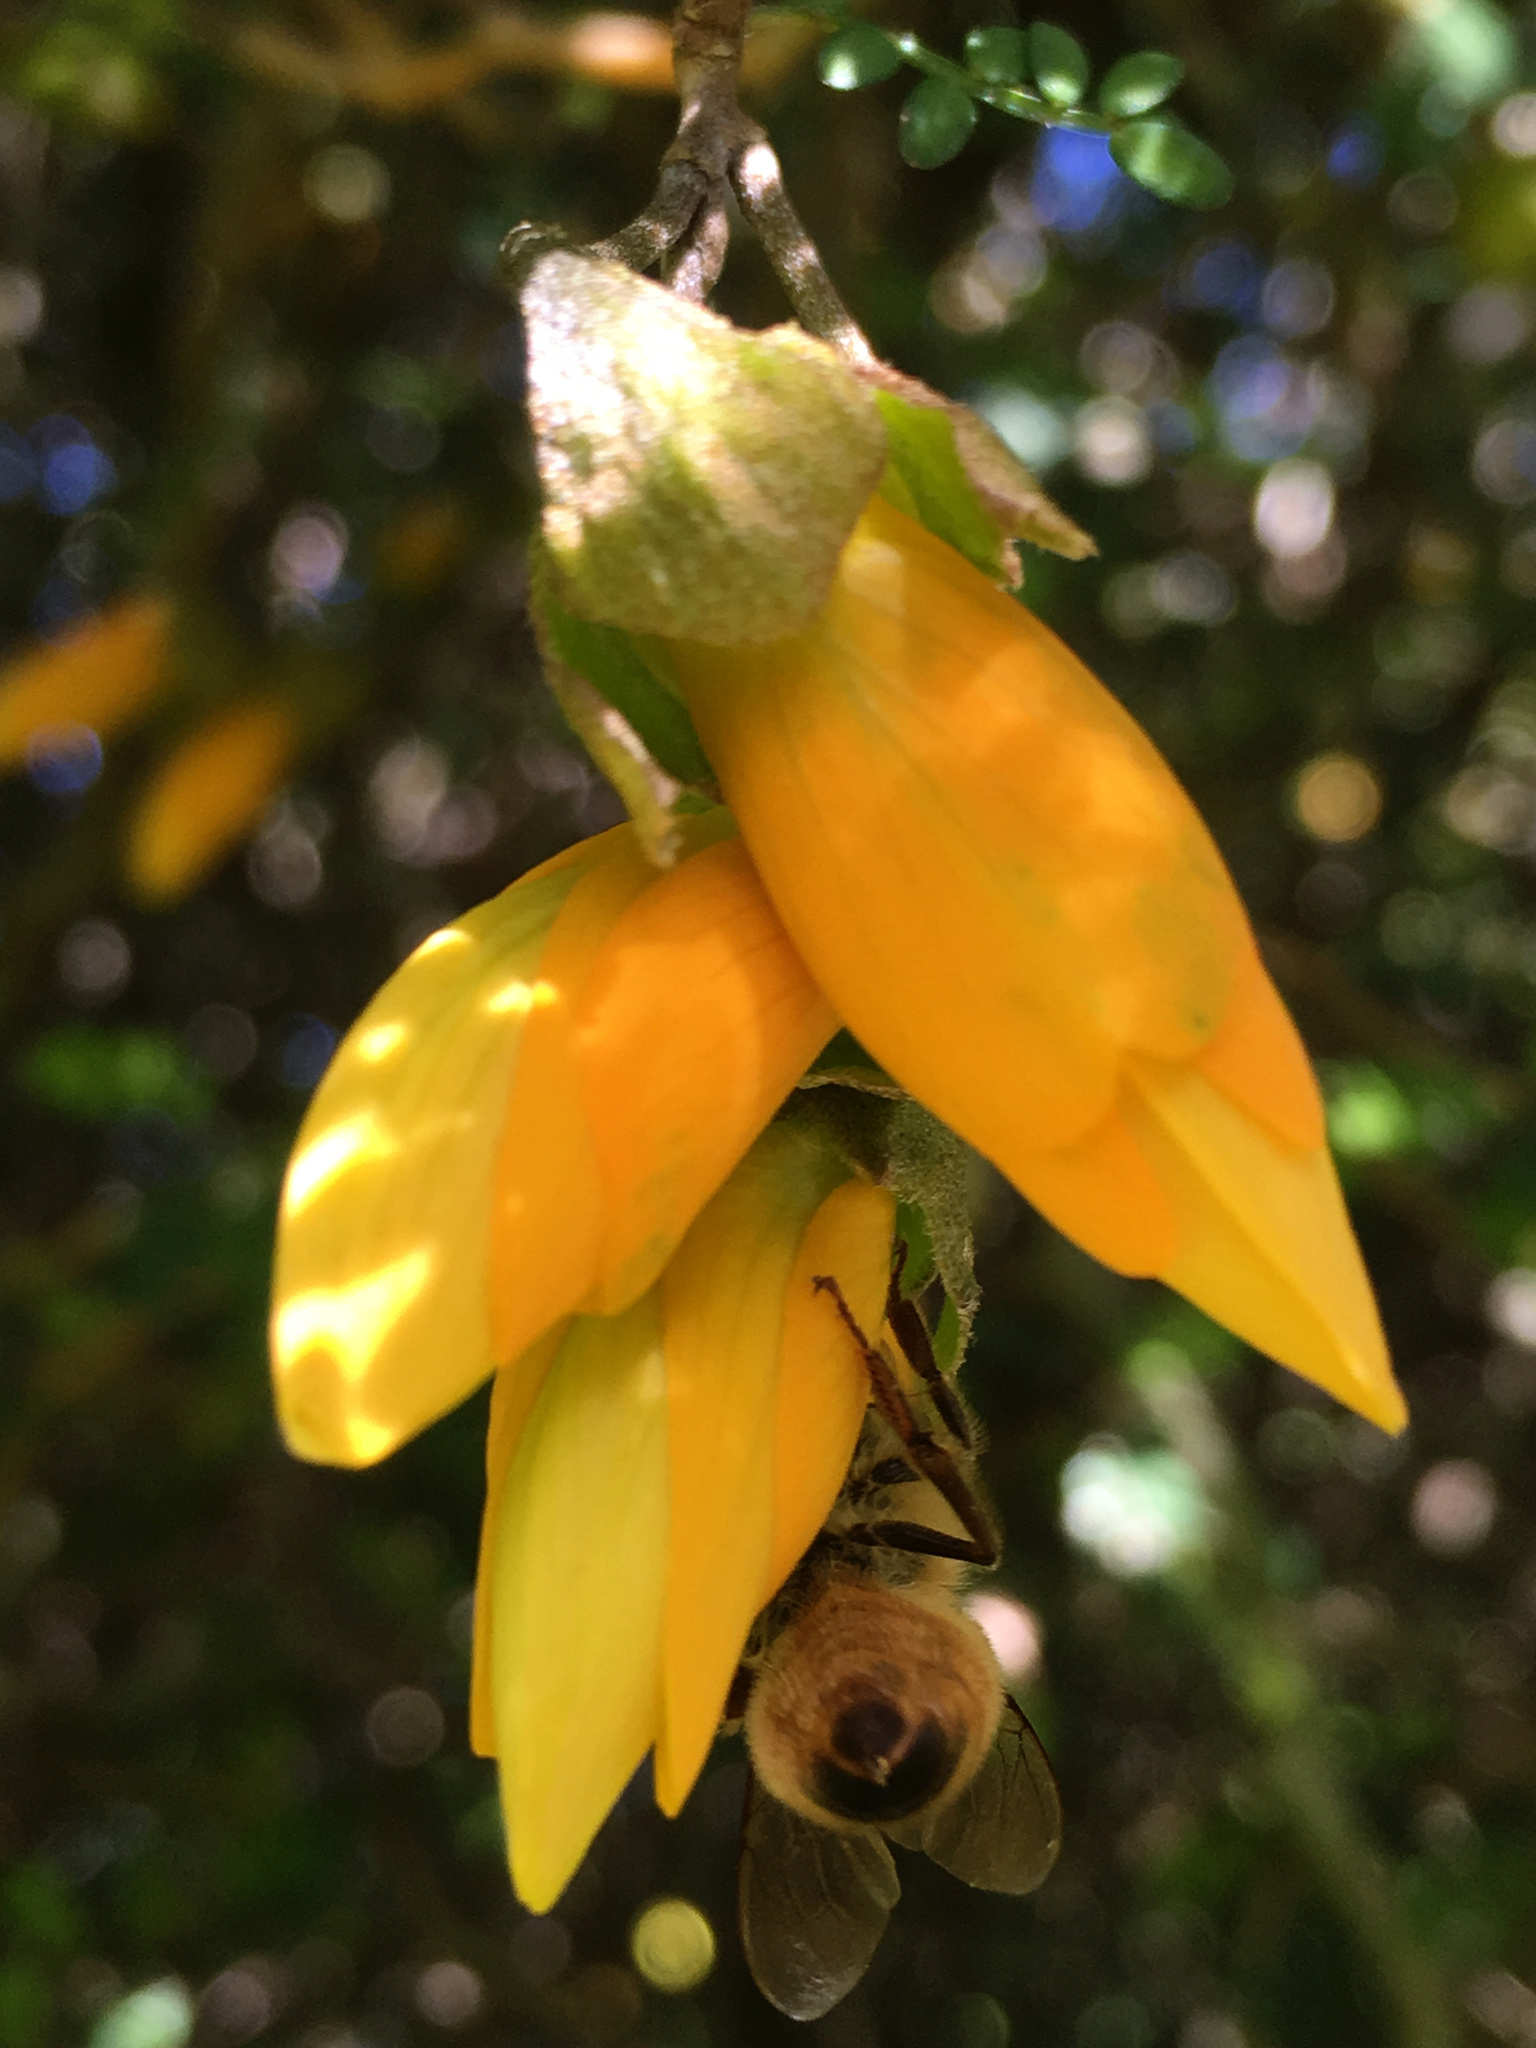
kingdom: Animalia
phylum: Arthropoda
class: Insecta
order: Hymenoptera
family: Apidae
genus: Apis
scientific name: Apis mellifera
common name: Honey bee
